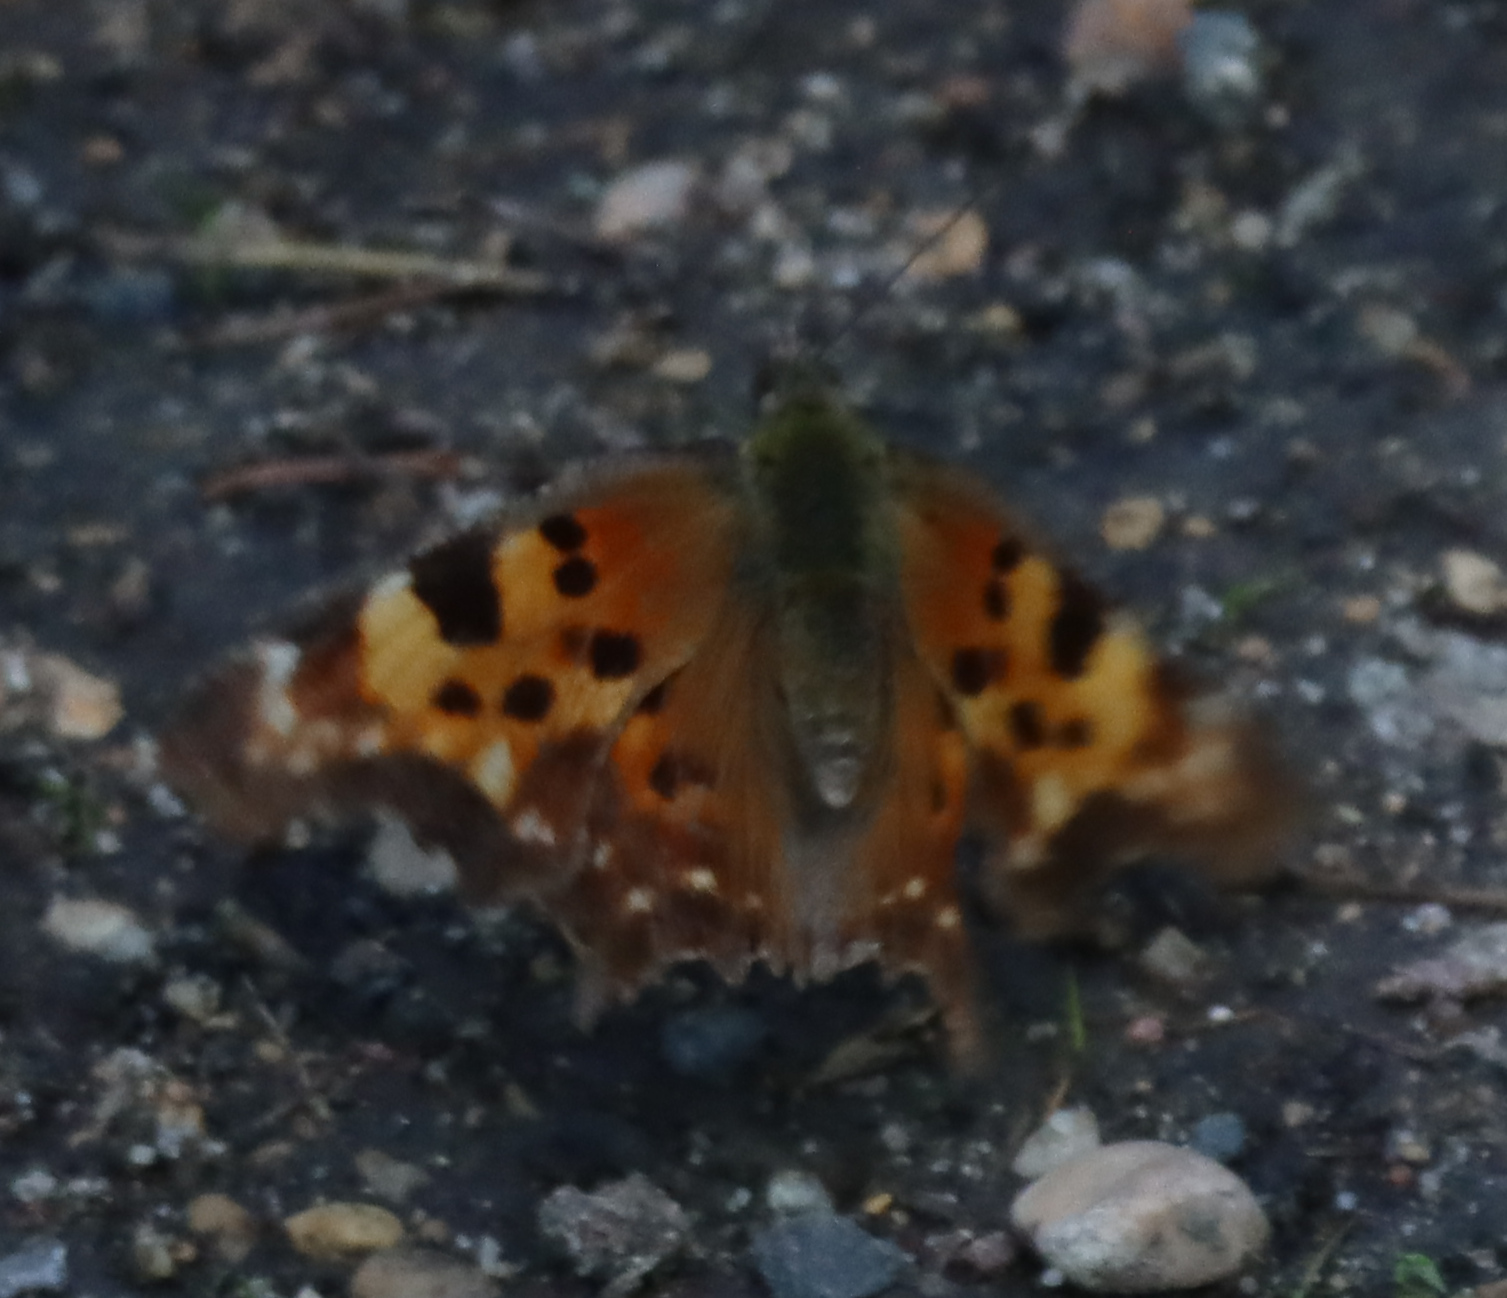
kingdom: Animalia
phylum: Arthropoda
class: Insecta
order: Lepidoptera
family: Nymphalidae
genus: Polygonia
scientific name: Polygonia faunus
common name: Green comma
